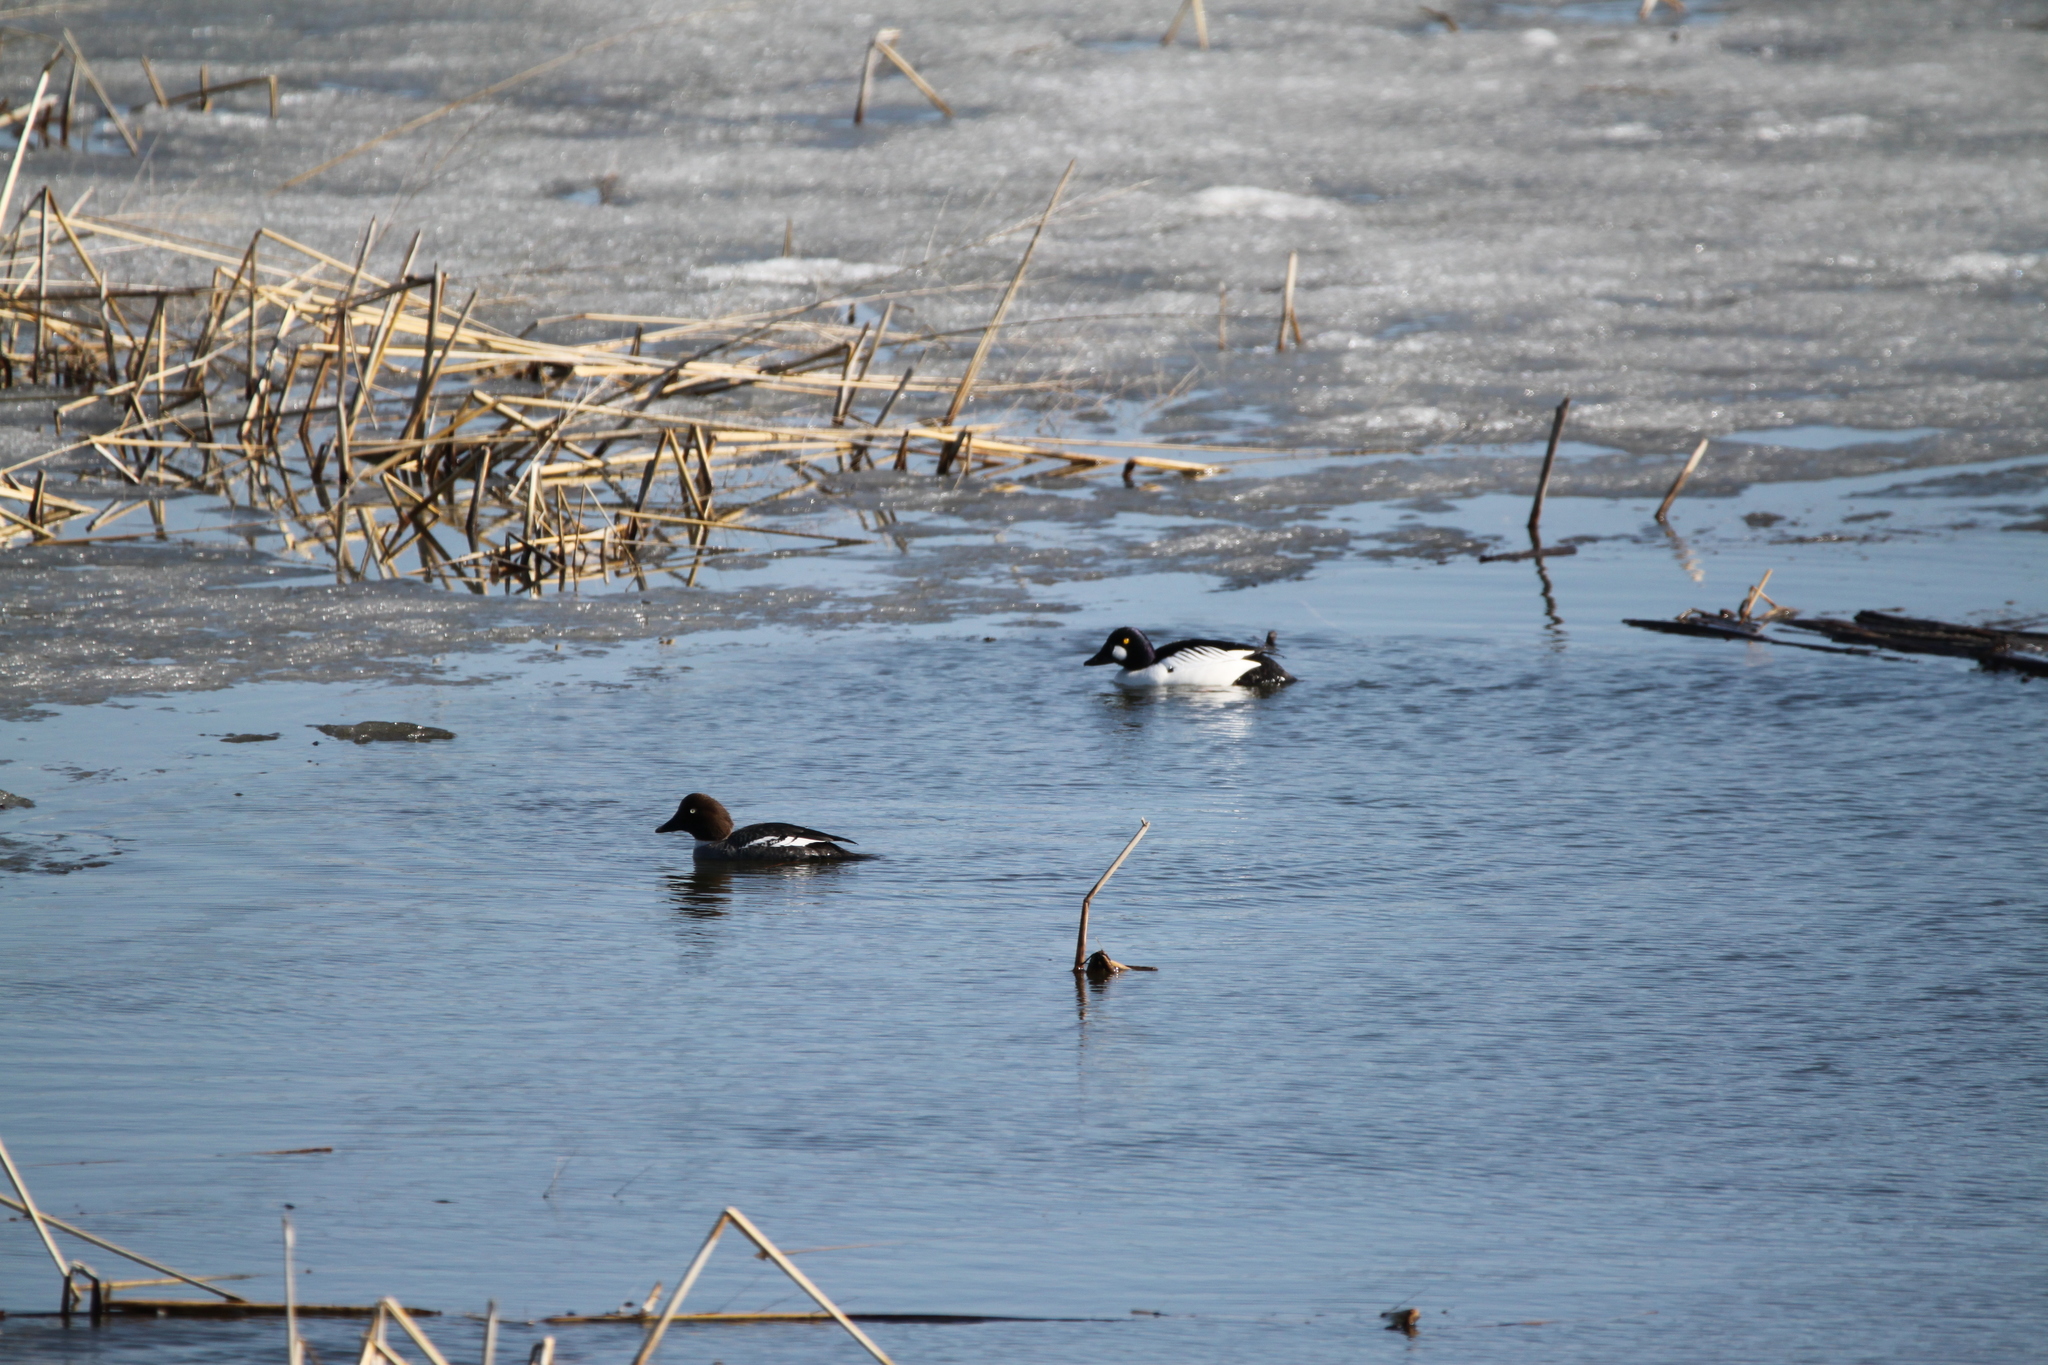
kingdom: Animalia
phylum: Chordata
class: Aves
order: Anseriformes
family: Anatidae
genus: Bucephala
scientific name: Bucephala clangula
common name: Common goldeneye
